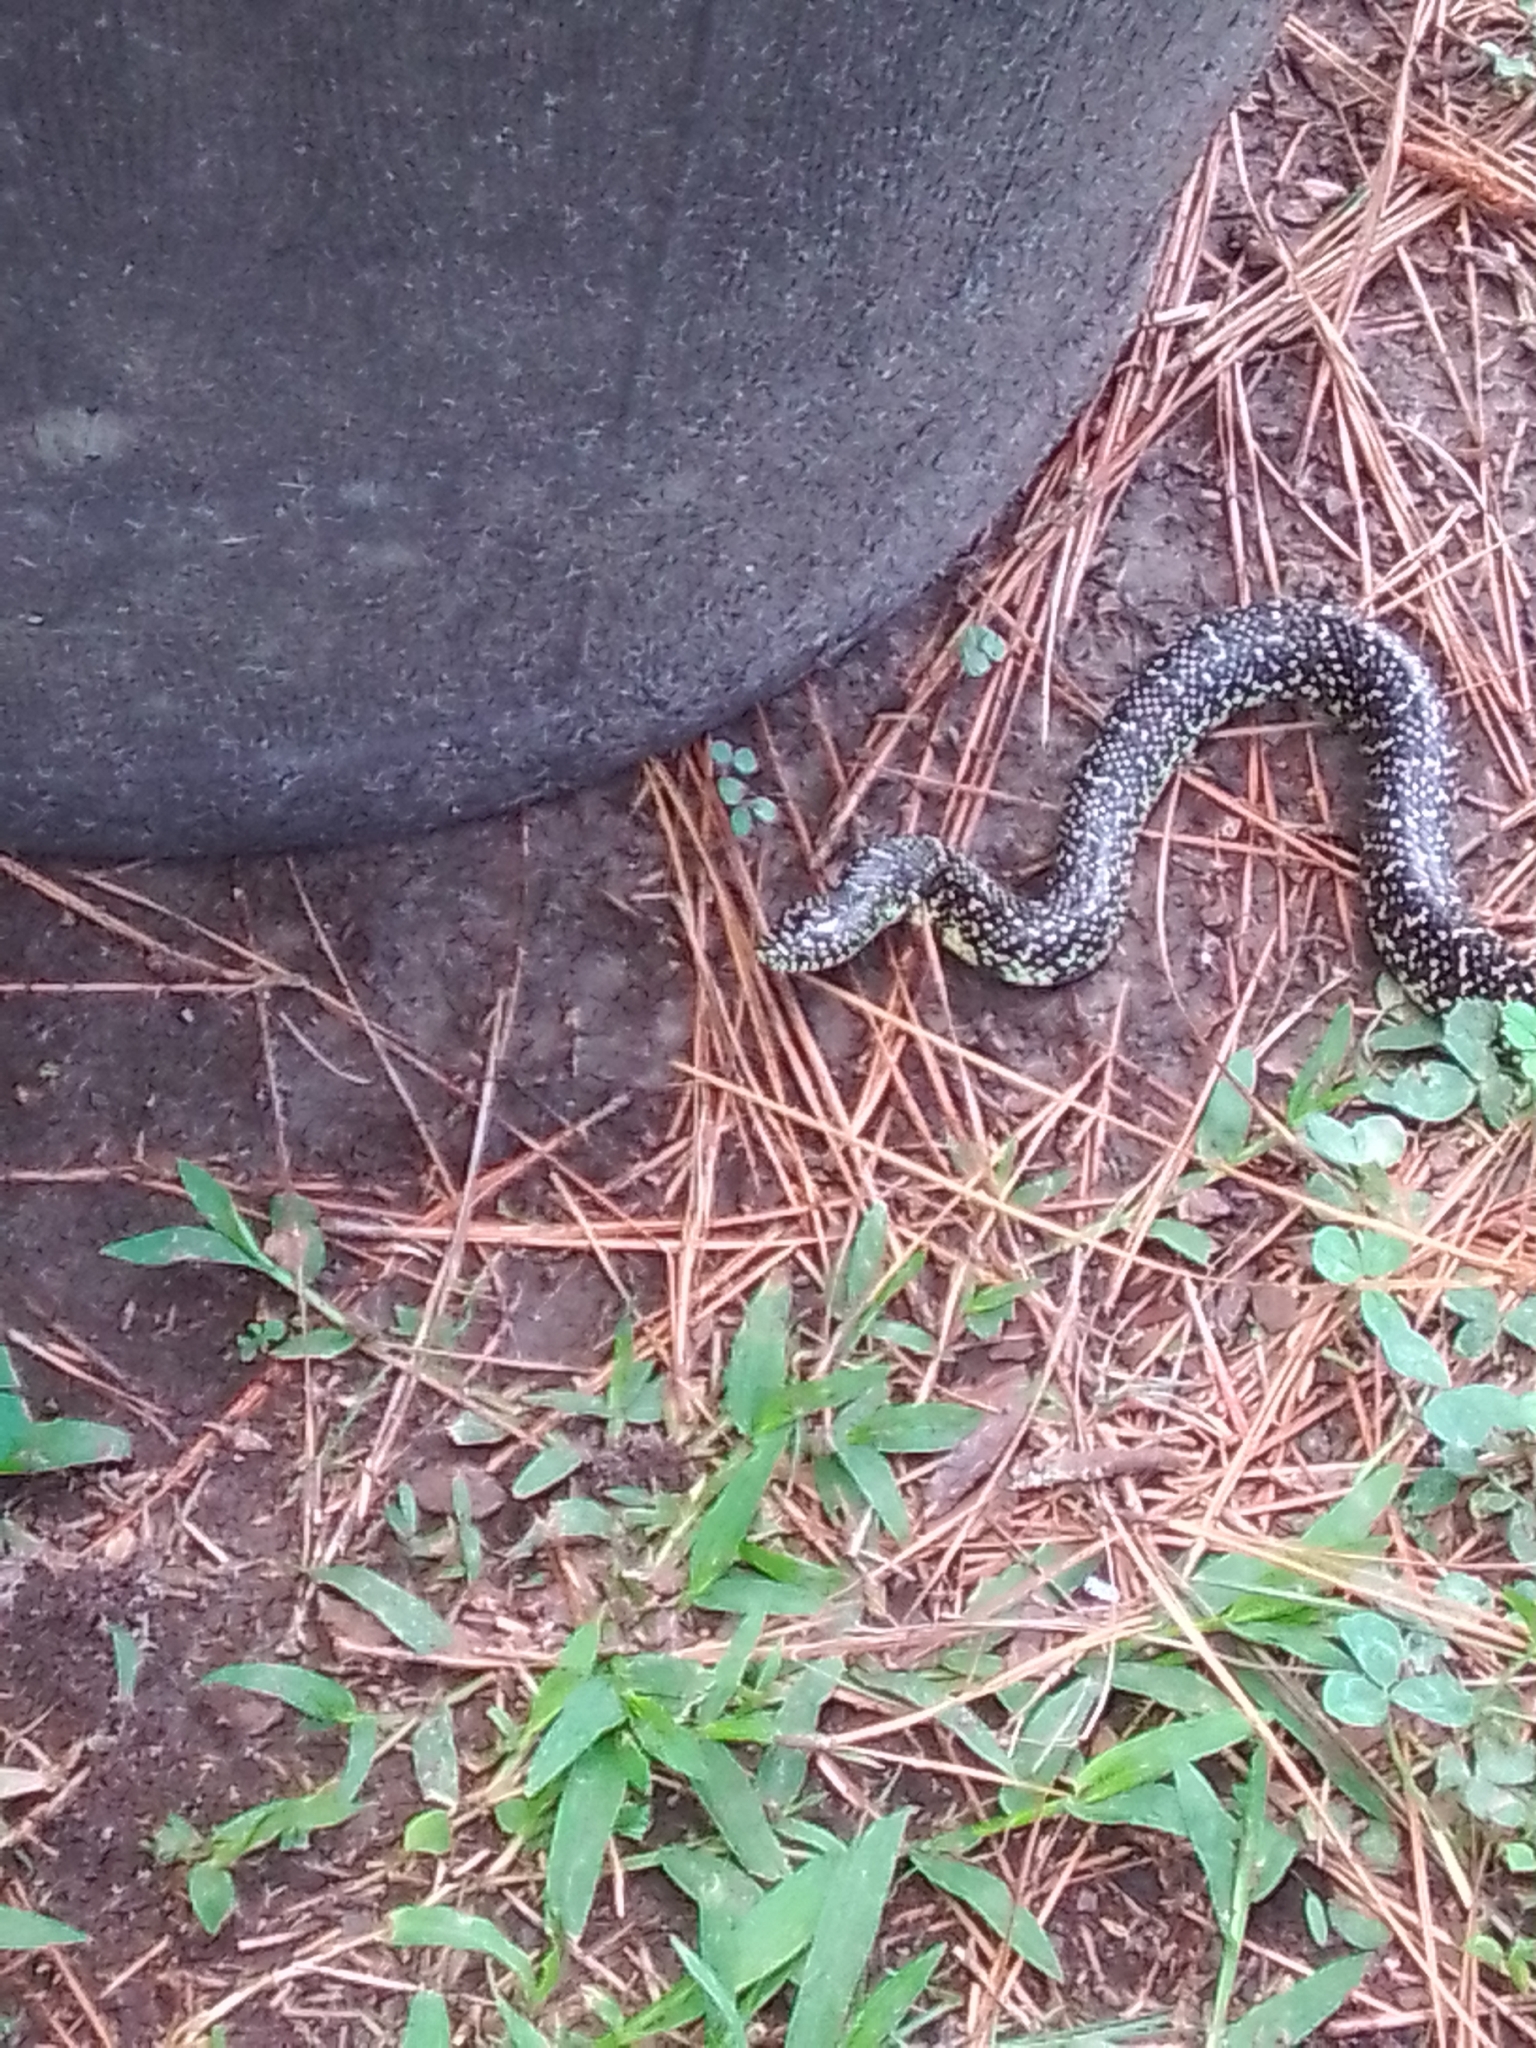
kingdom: Animalia
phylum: Chordata
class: Squamata
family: Colubridae
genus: Lampropeltis
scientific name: Lampropeltis holbrooki
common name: Speckled kingsnake
